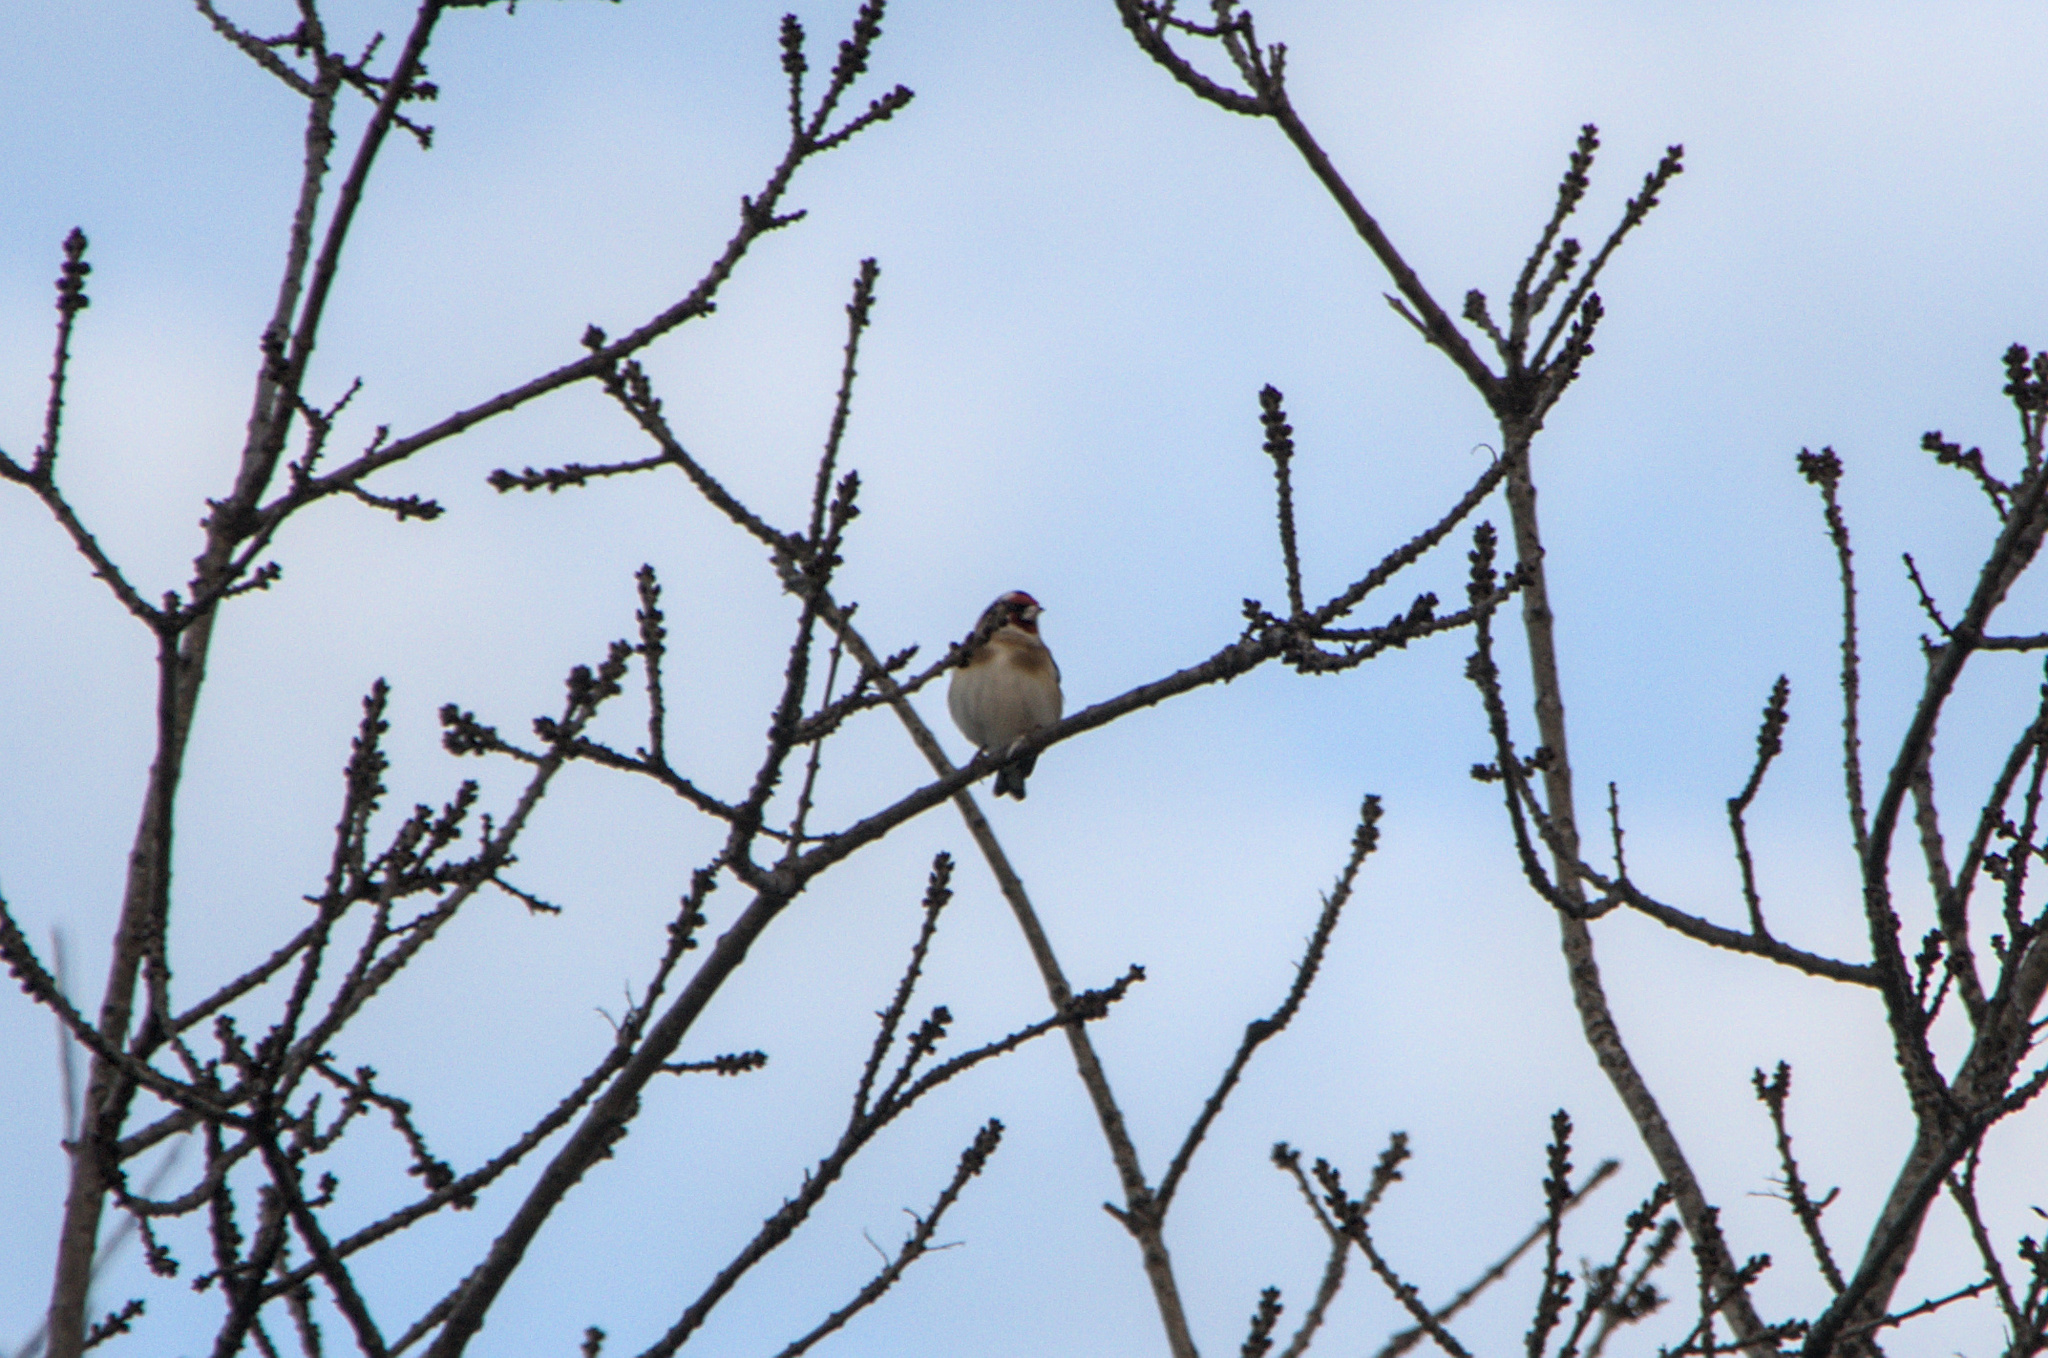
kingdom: Animalia
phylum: Chordata
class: Aves
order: Passeriformes
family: Fringillidae
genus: Carduelis
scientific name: Carduelis carduelis
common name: European goldfinch
